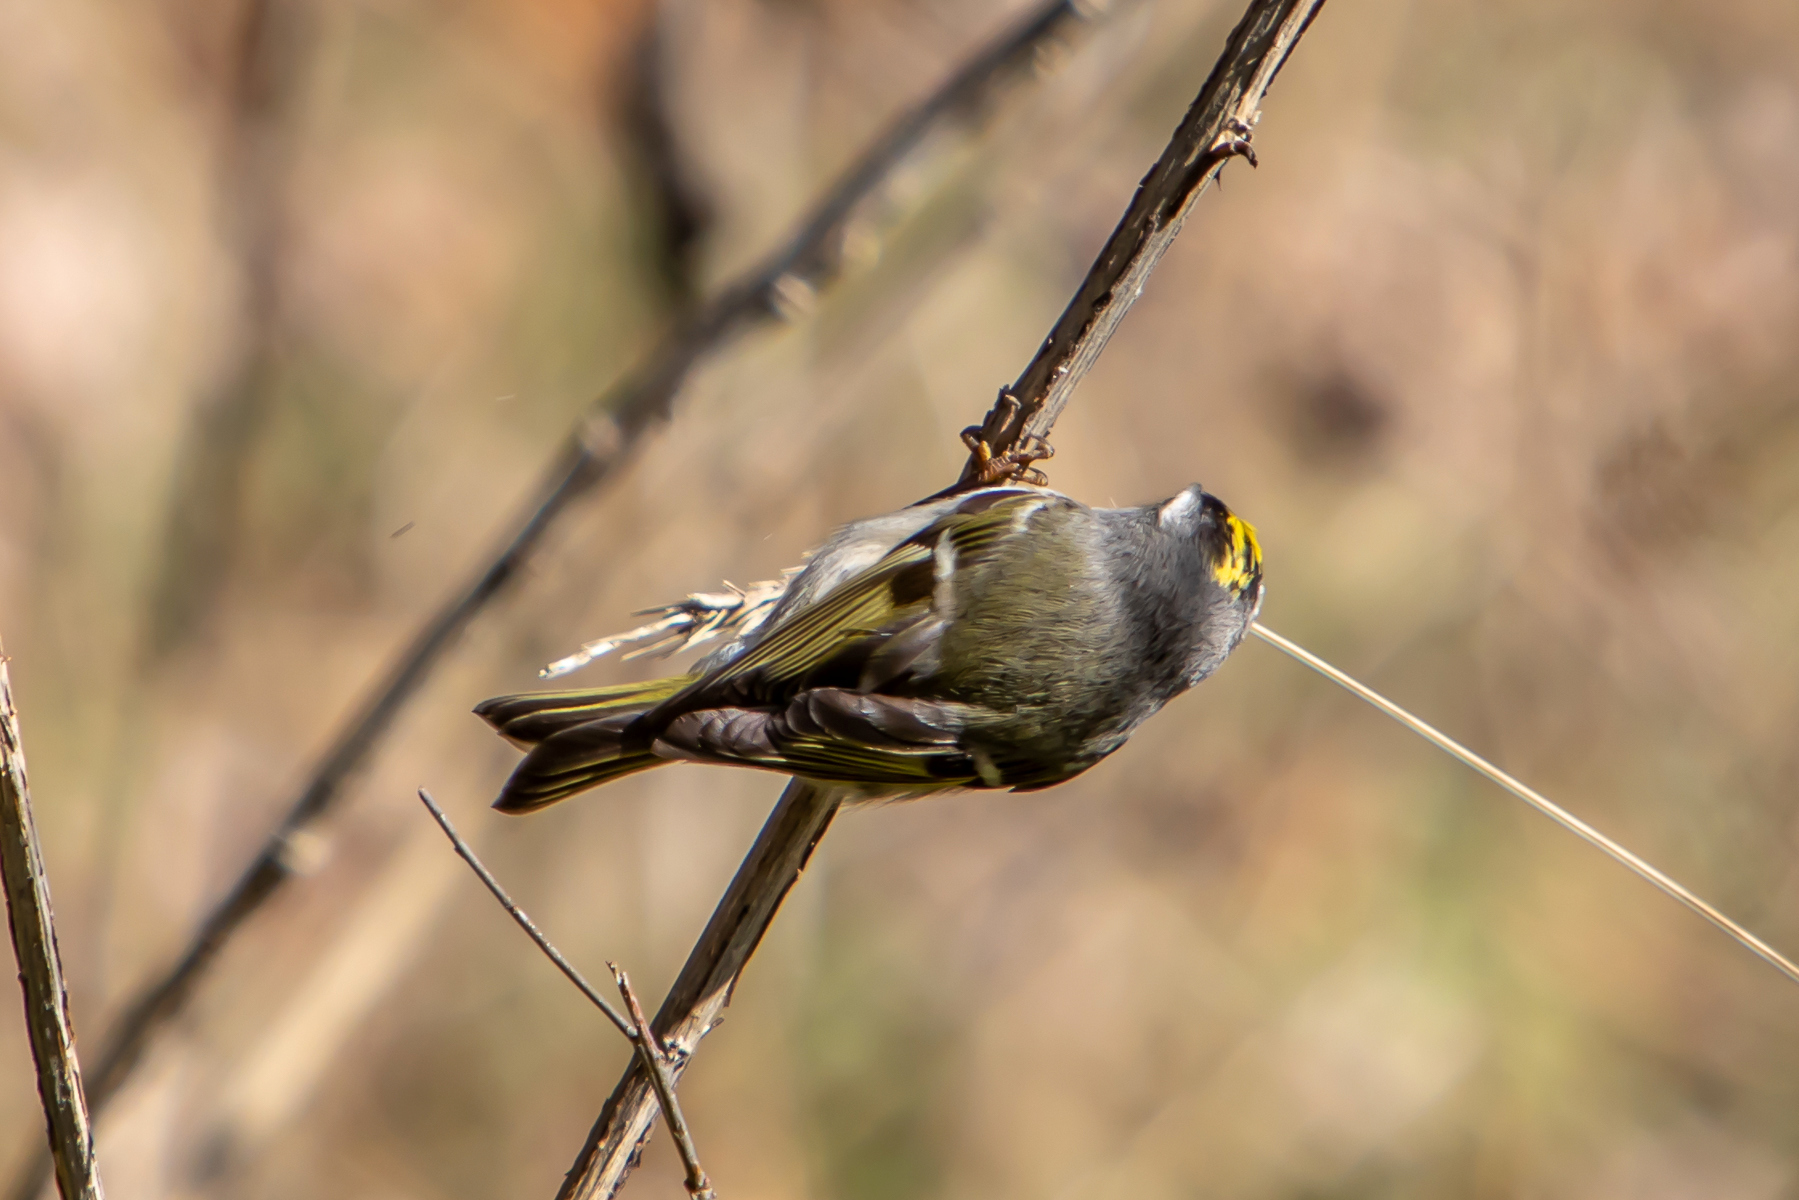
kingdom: Animalia
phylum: Chordata
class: Aves
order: Passeriformes
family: Regulidae
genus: Regulus
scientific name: Regulus satrapa
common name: Golden-crowned kinglet
